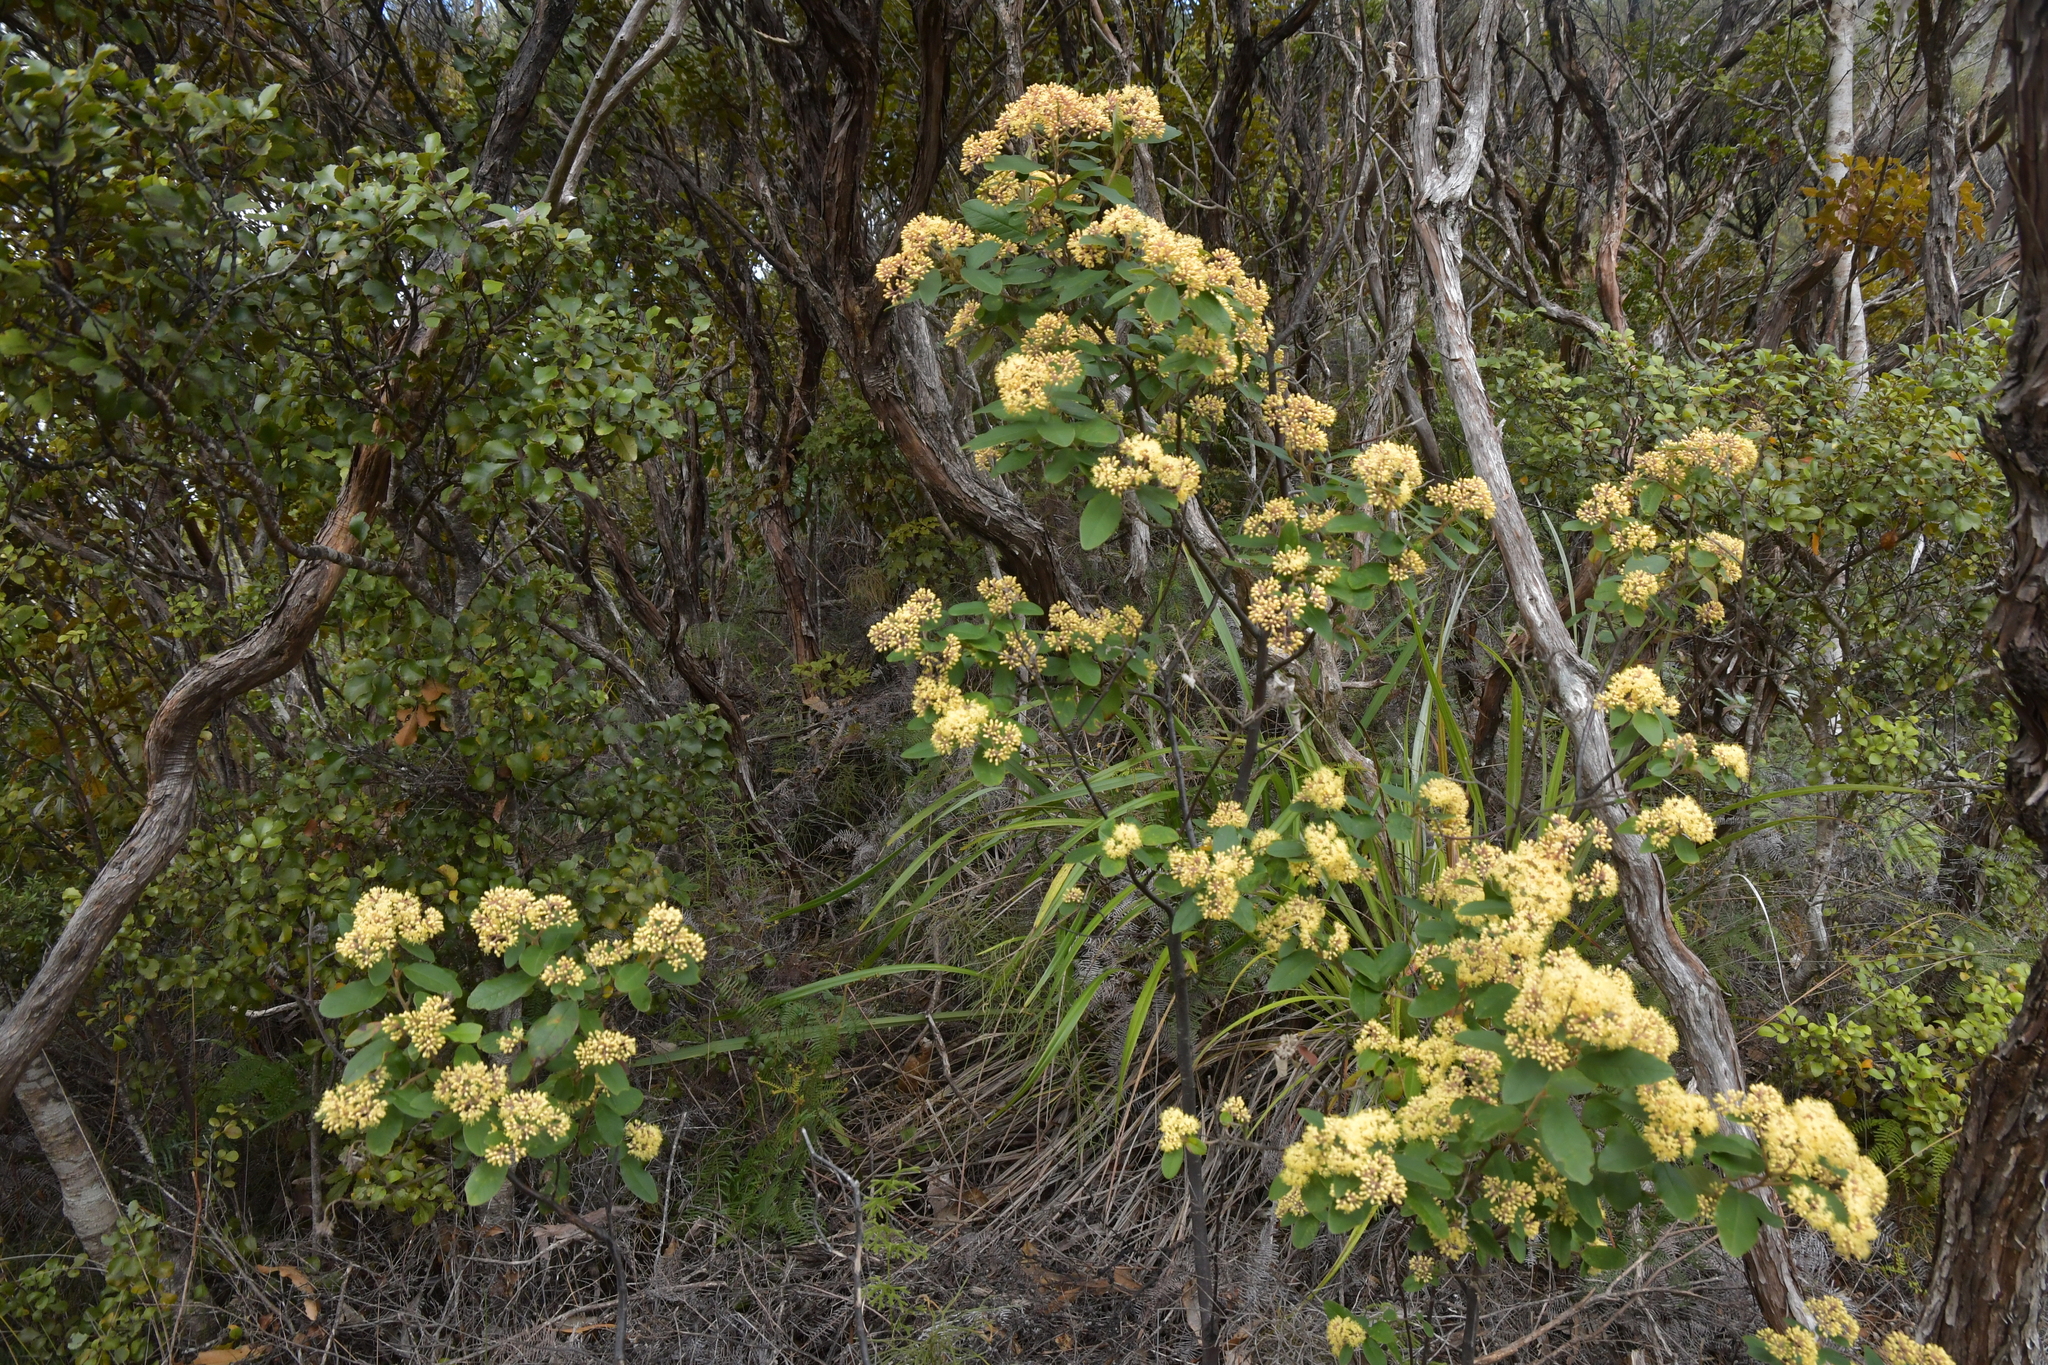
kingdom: Plantae
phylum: Tracheophyta
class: Magnoliopsida
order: Rosales
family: Rhamnaceae
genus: Pomaderris
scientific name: Pomaderris kumeraho
